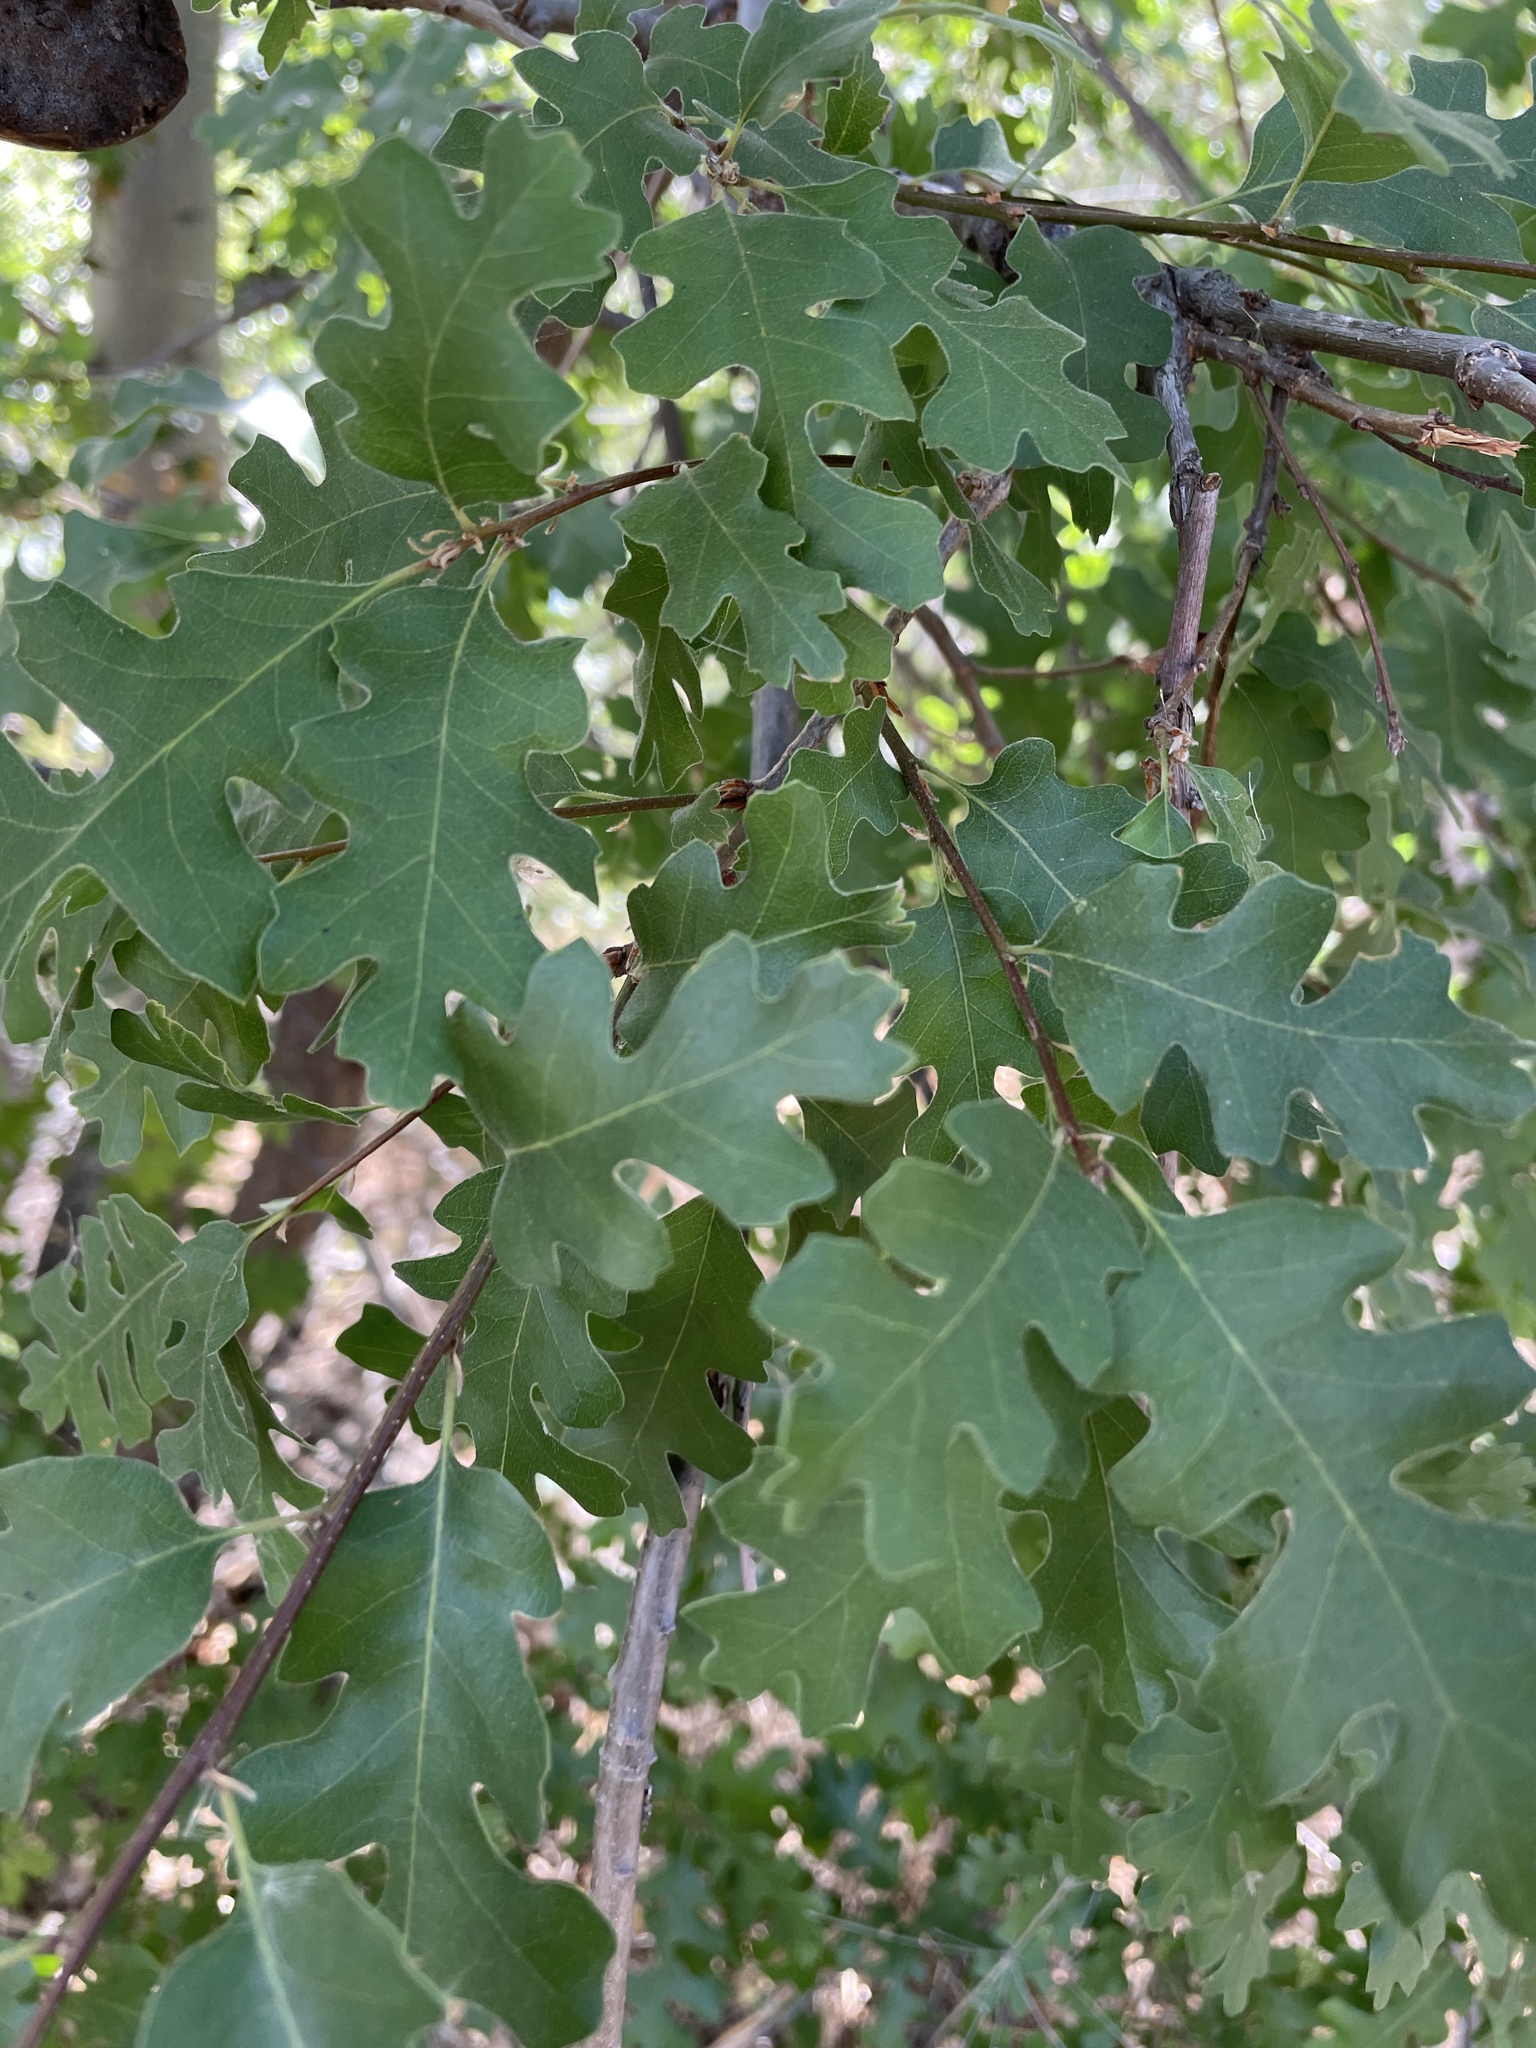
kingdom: Plantae
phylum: Tracheophyta
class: Magnoliopsida
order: Fagales
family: Fagaceae
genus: Quercus
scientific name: Quercus lobata
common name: Valley oak
